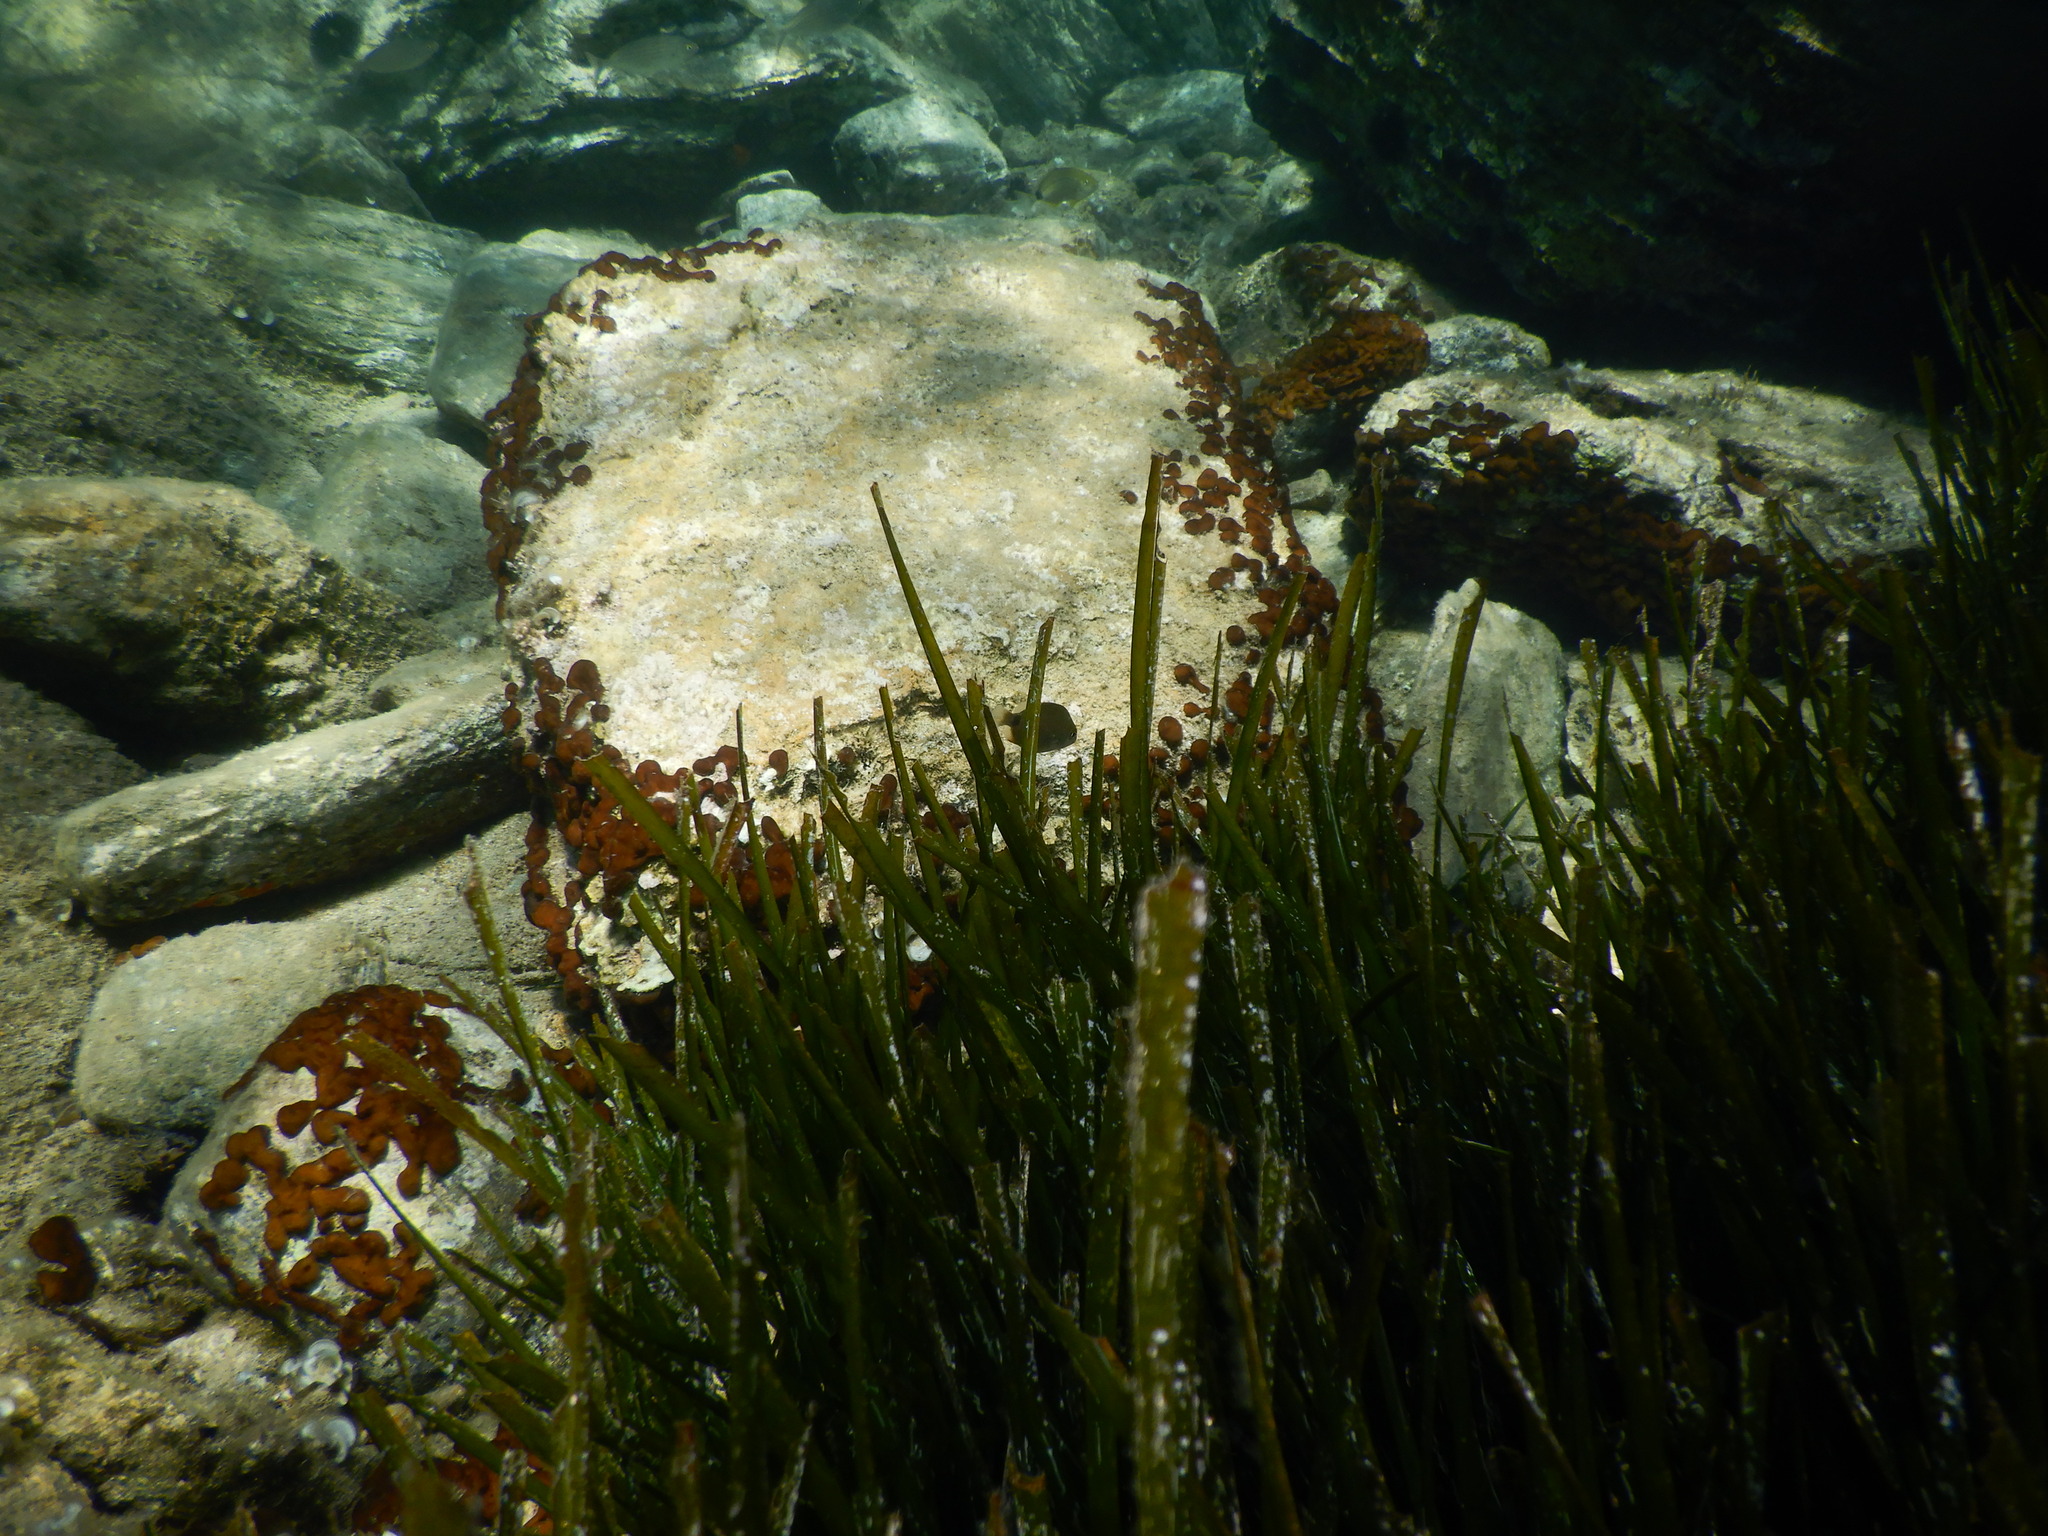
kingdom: Animalia
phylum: Chordata
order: Perciformes
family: Sparidae
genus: Diplodus
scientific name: Diplodus annularis
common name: Annular seabream
